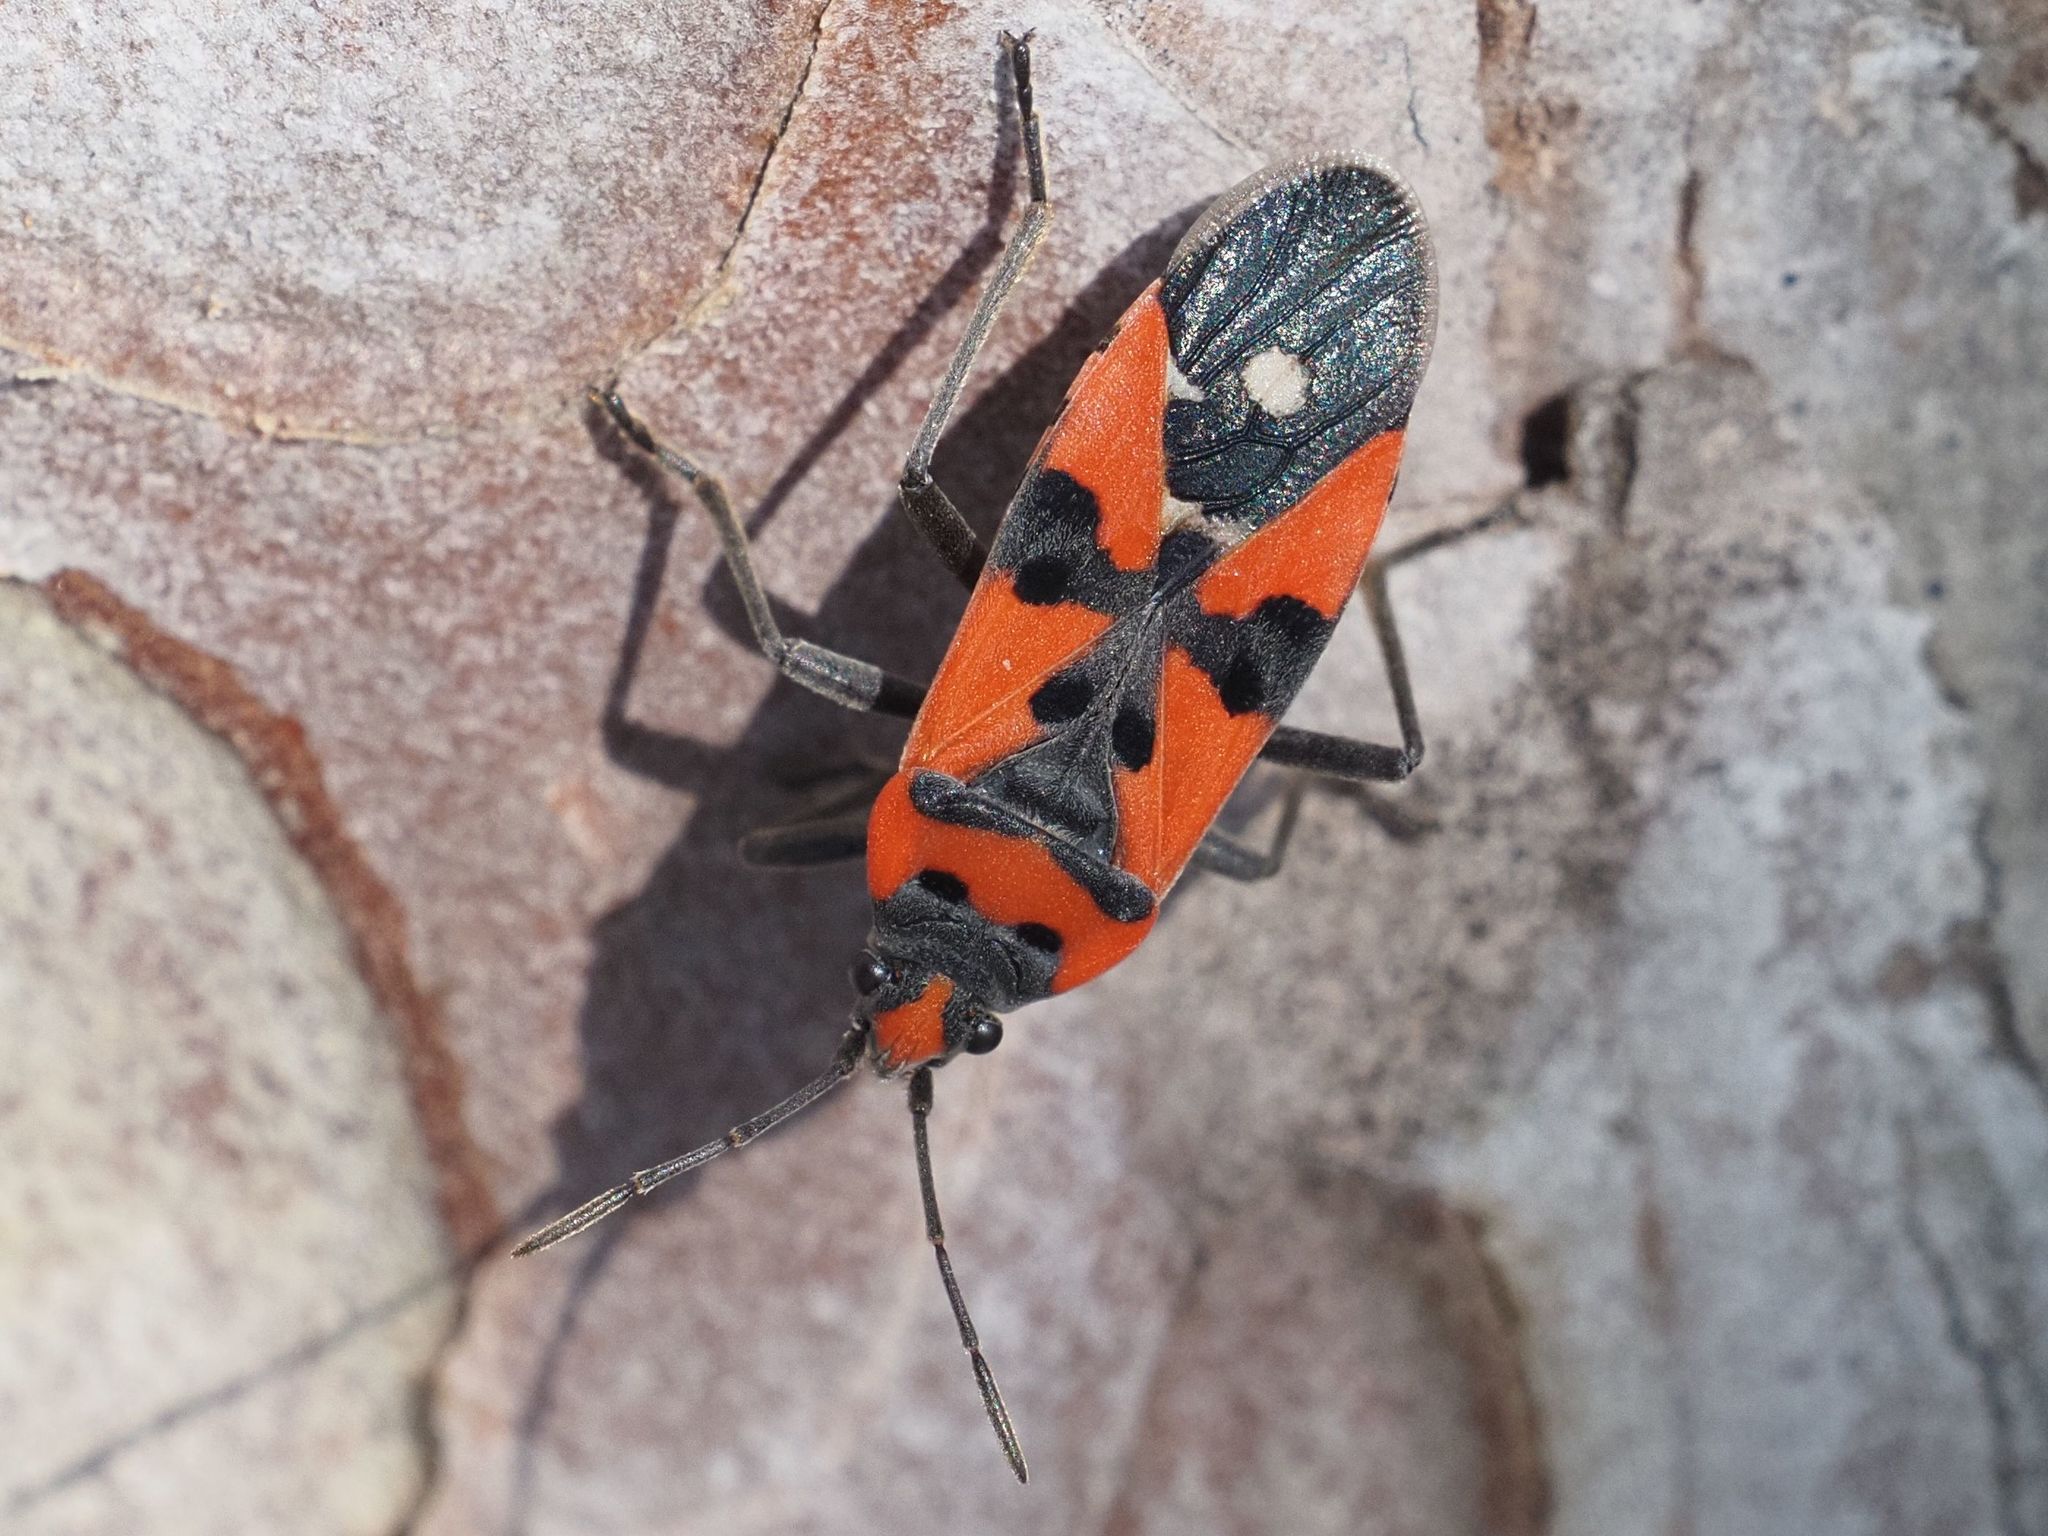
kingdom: Animalia
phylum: Arthropoda
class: Insecta
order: Hemiptera
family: Lygaeidae
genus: Lygaeus
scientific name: Lygaeus equestris
